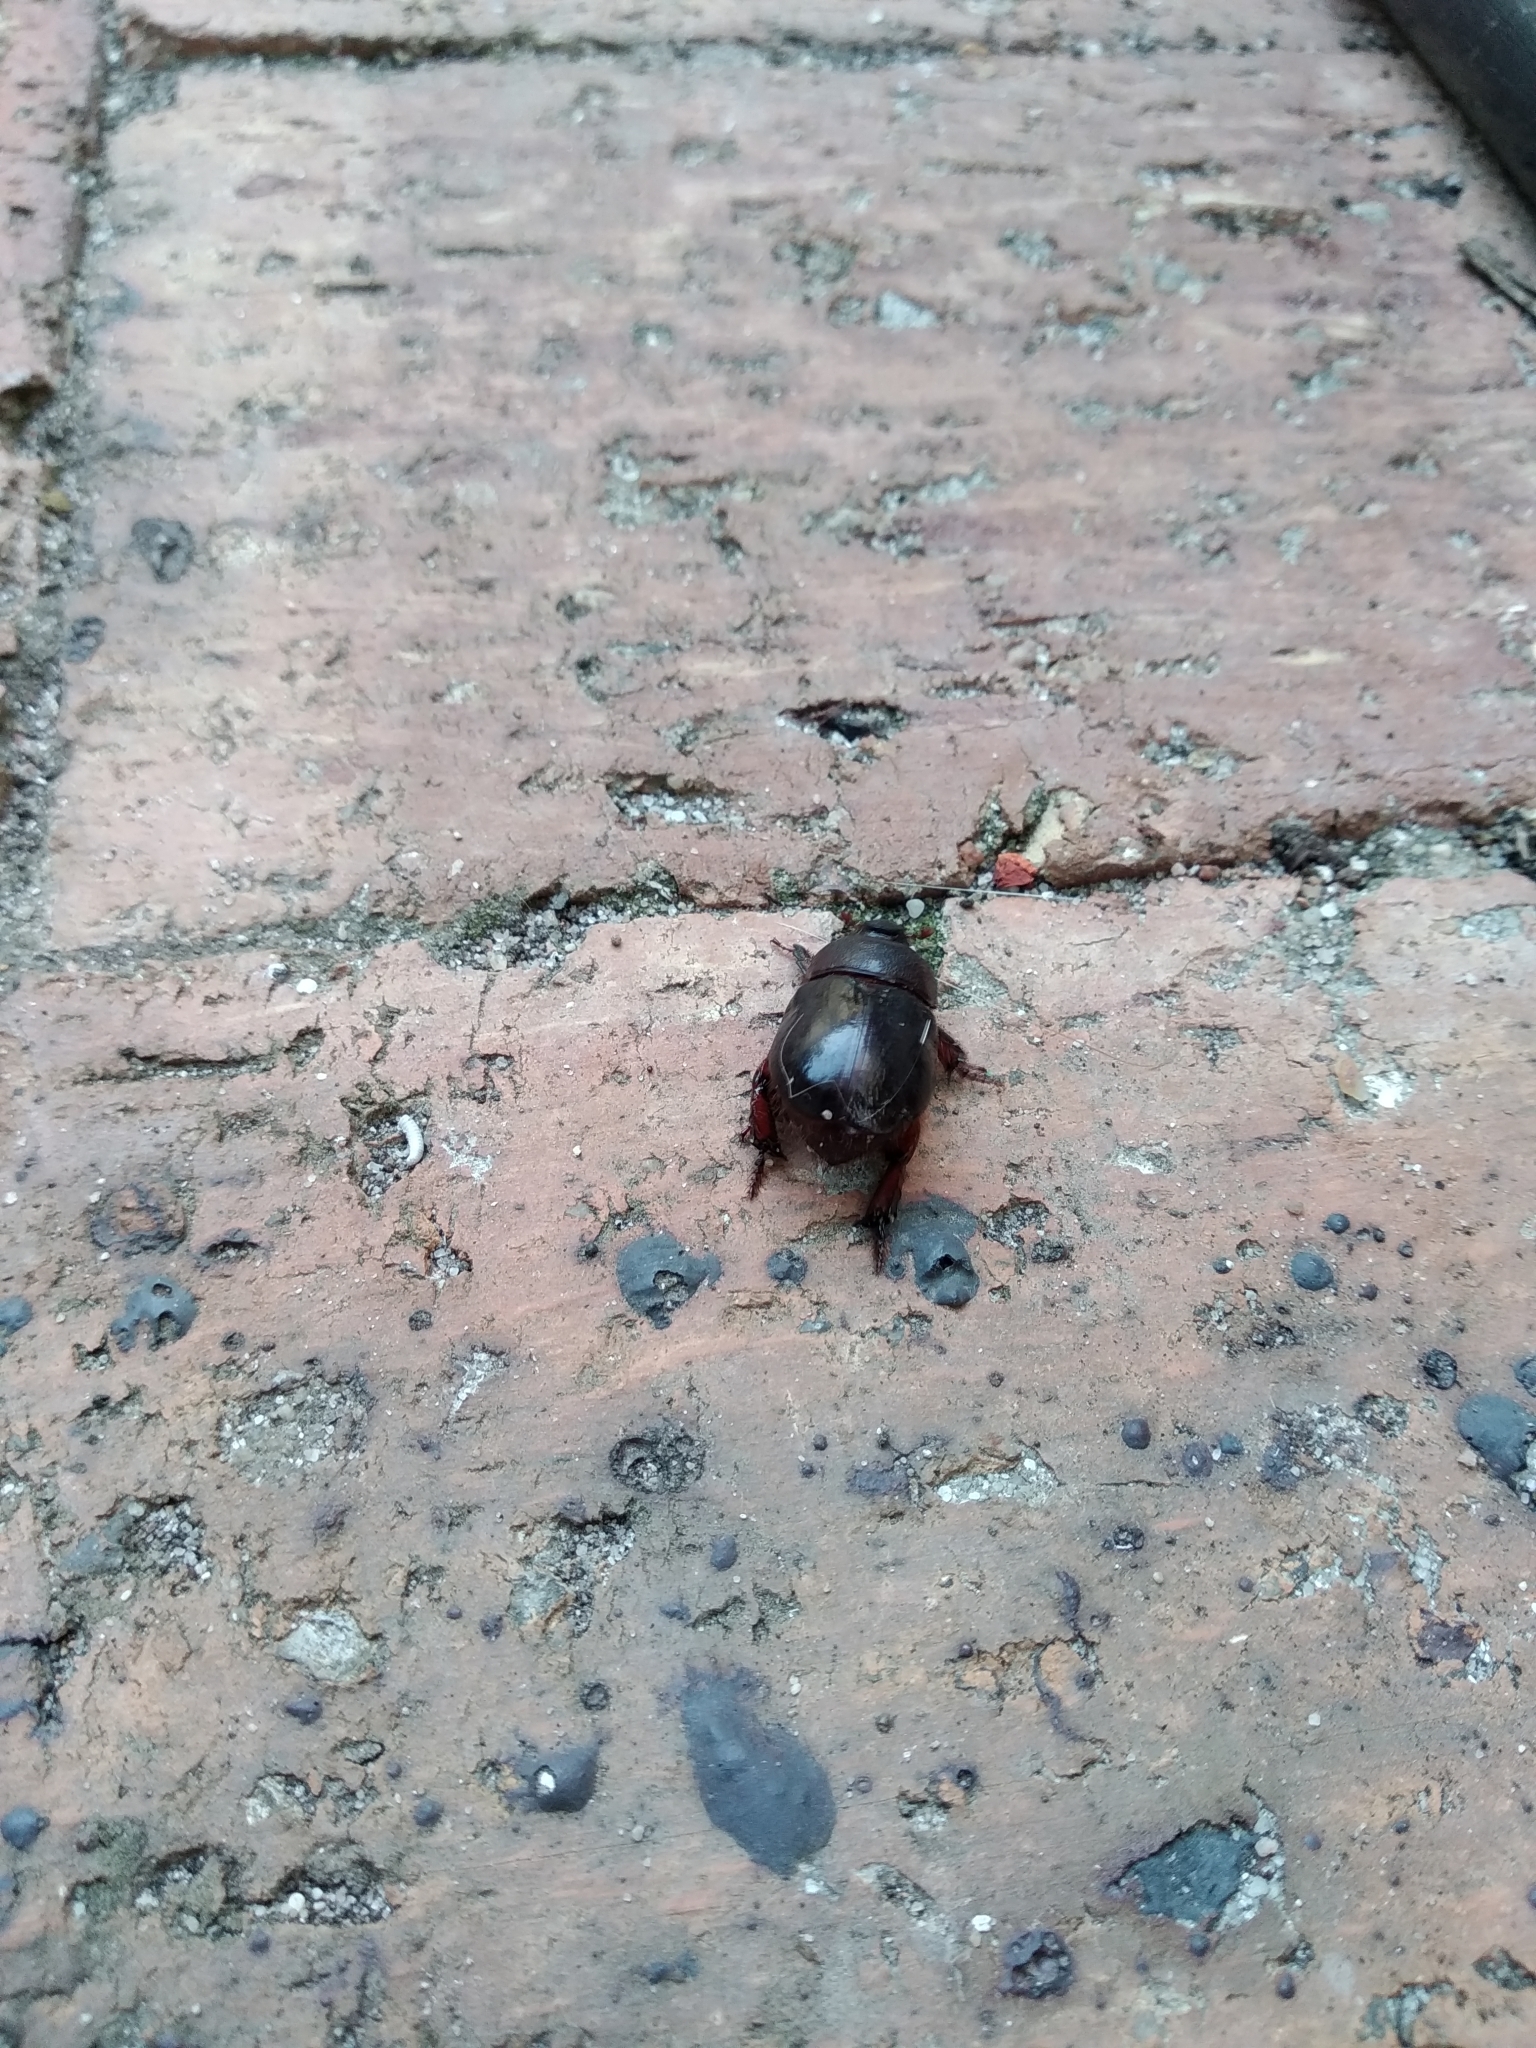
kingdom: Animalia
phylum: Arthropoda
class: Insecta
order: Coleoptera
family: Scarabaeidae
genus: Temnorhynchus
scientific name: Temnorhynchus retusus
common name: Plate-faced beetle
